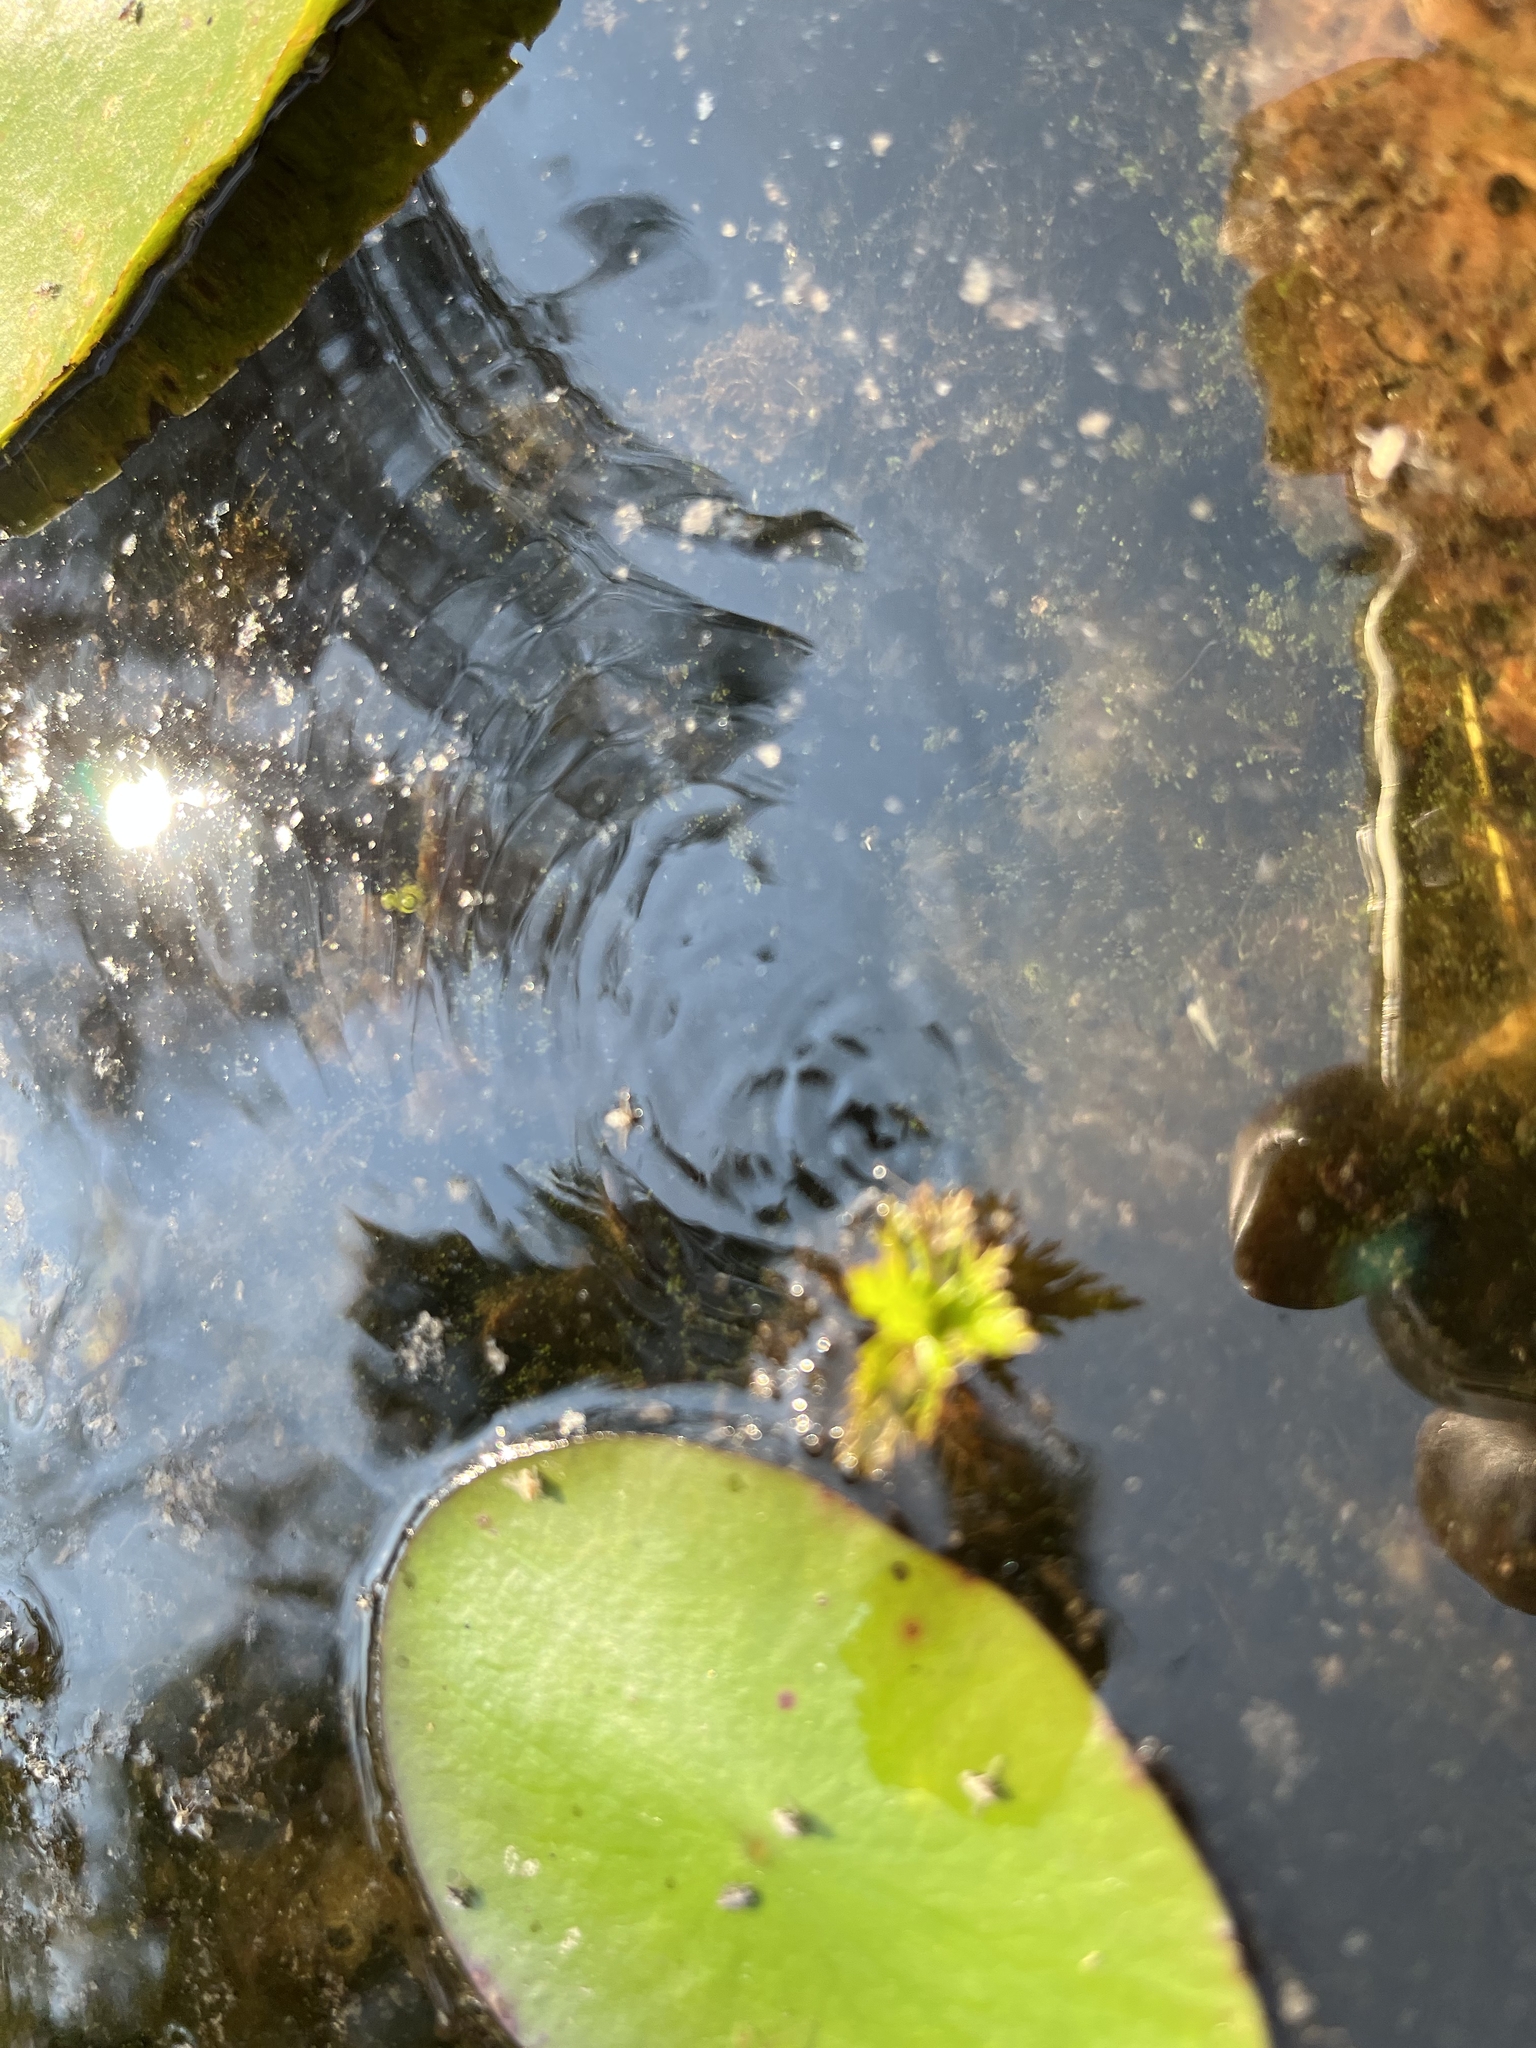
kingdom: Plantae
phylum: Tracheophyta
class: Magnoliopsida
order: Asterales
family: Asteraceae
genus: Bidens
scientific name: Bidens beckii
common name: Beck's beggarticks
